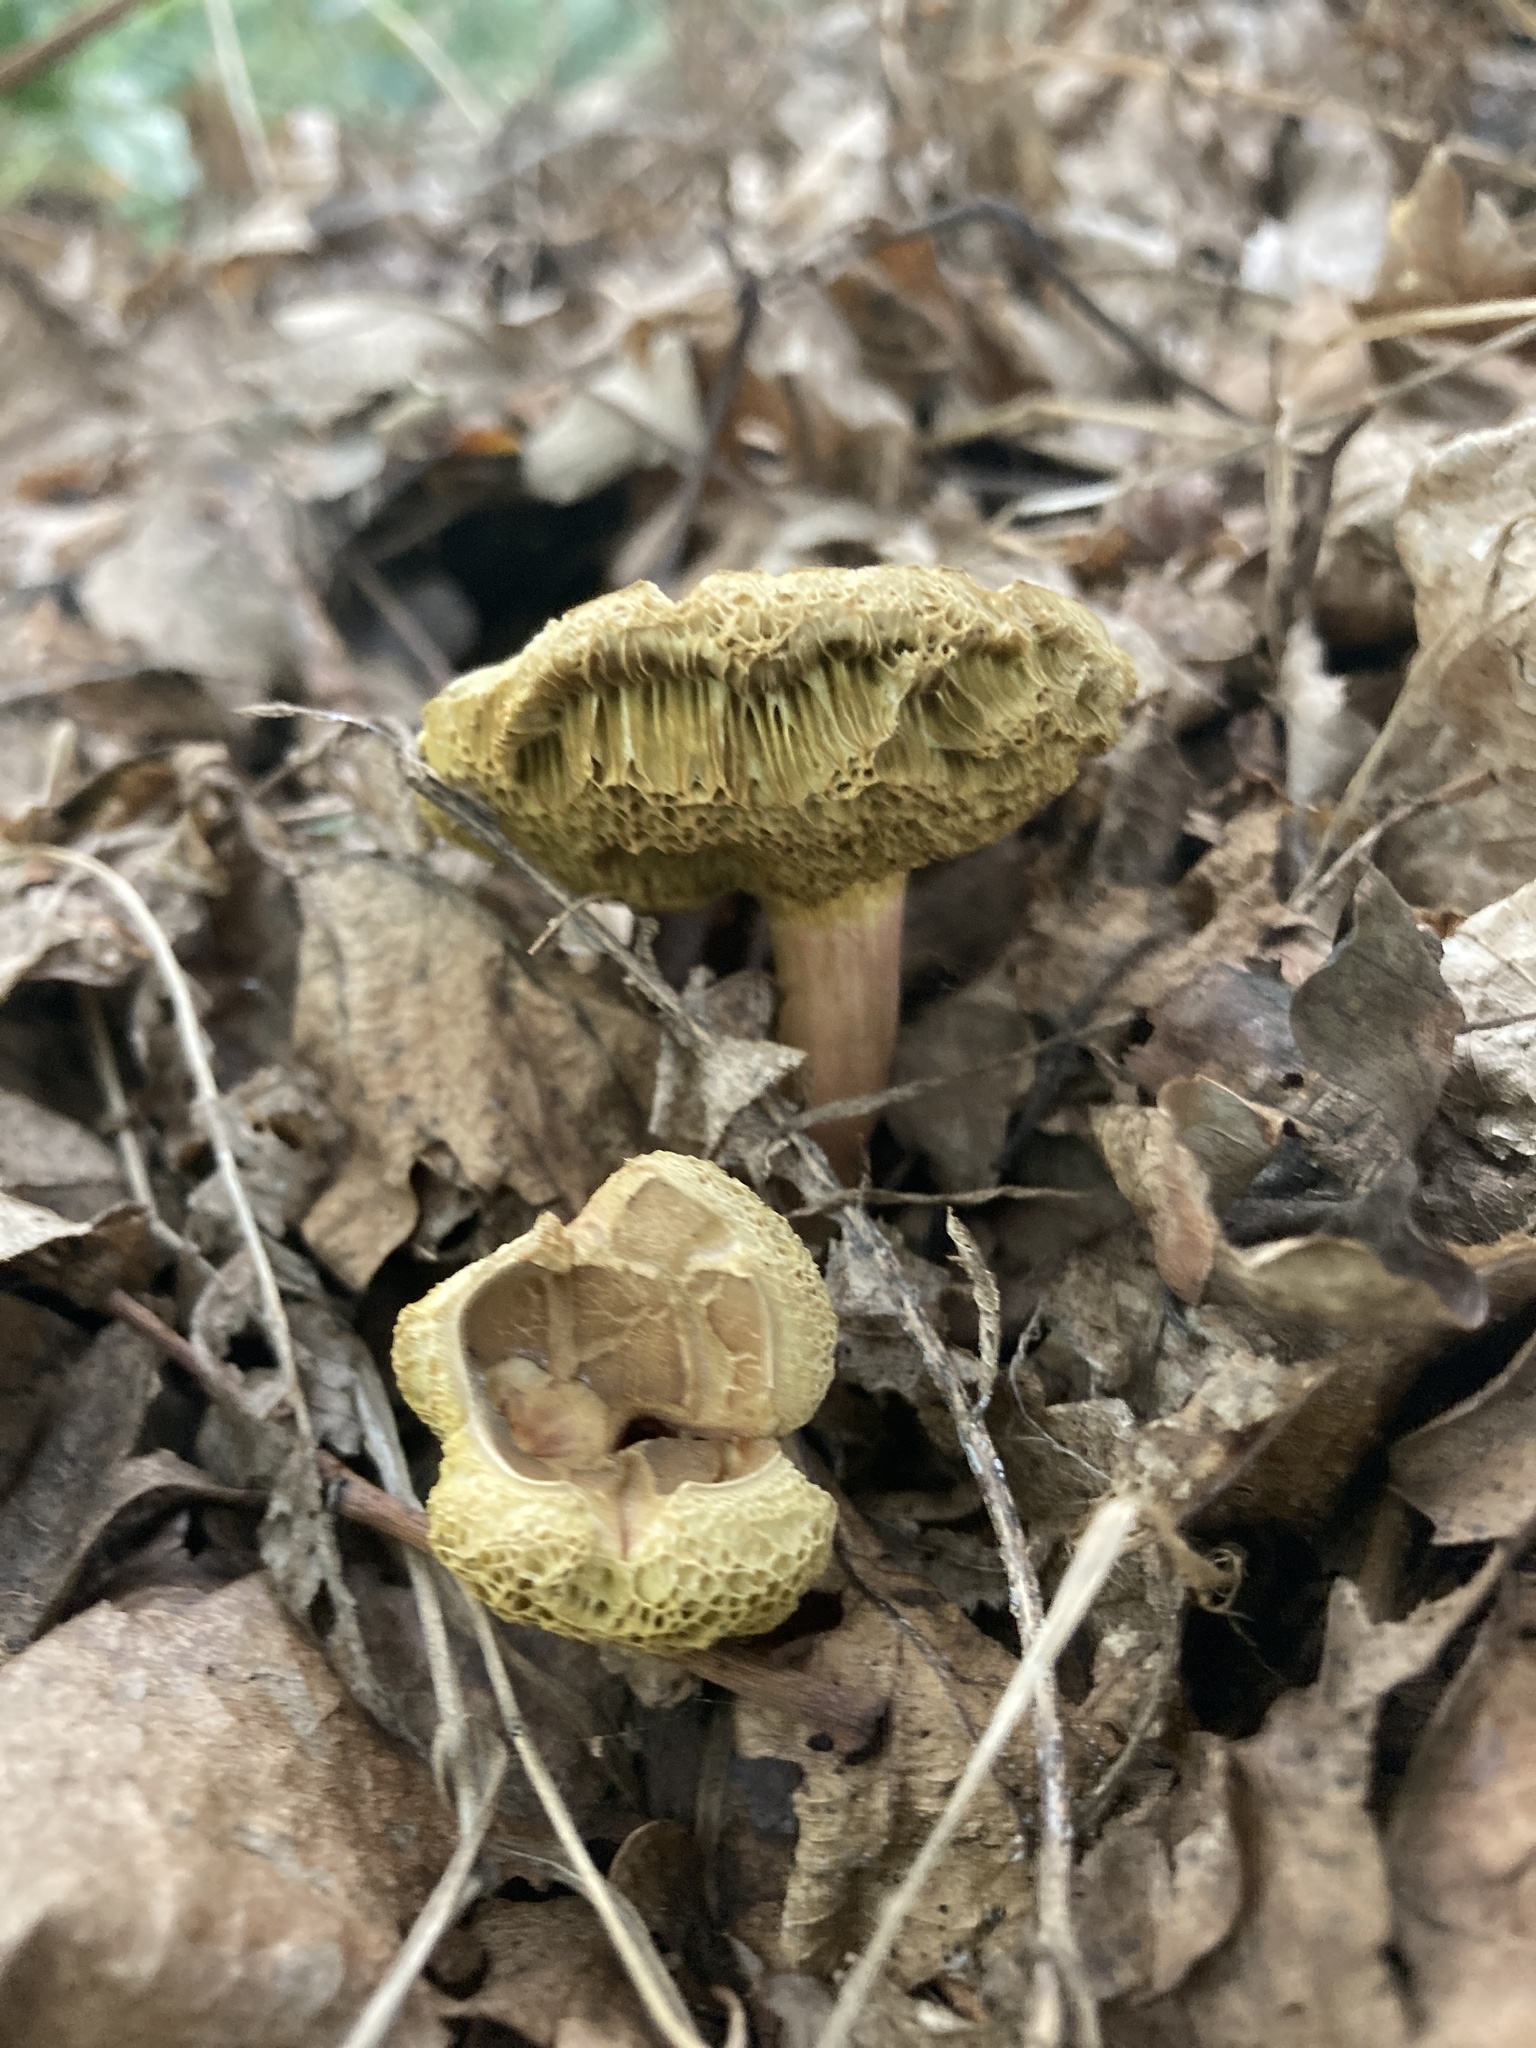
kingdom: Fungi
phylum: Basidiomycota
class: Agaricomycetes
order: Boletales
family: Boletaceae
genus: Xerocomellus
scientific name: Xerocomellus chrysenteron
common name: Red-cracking bolete
